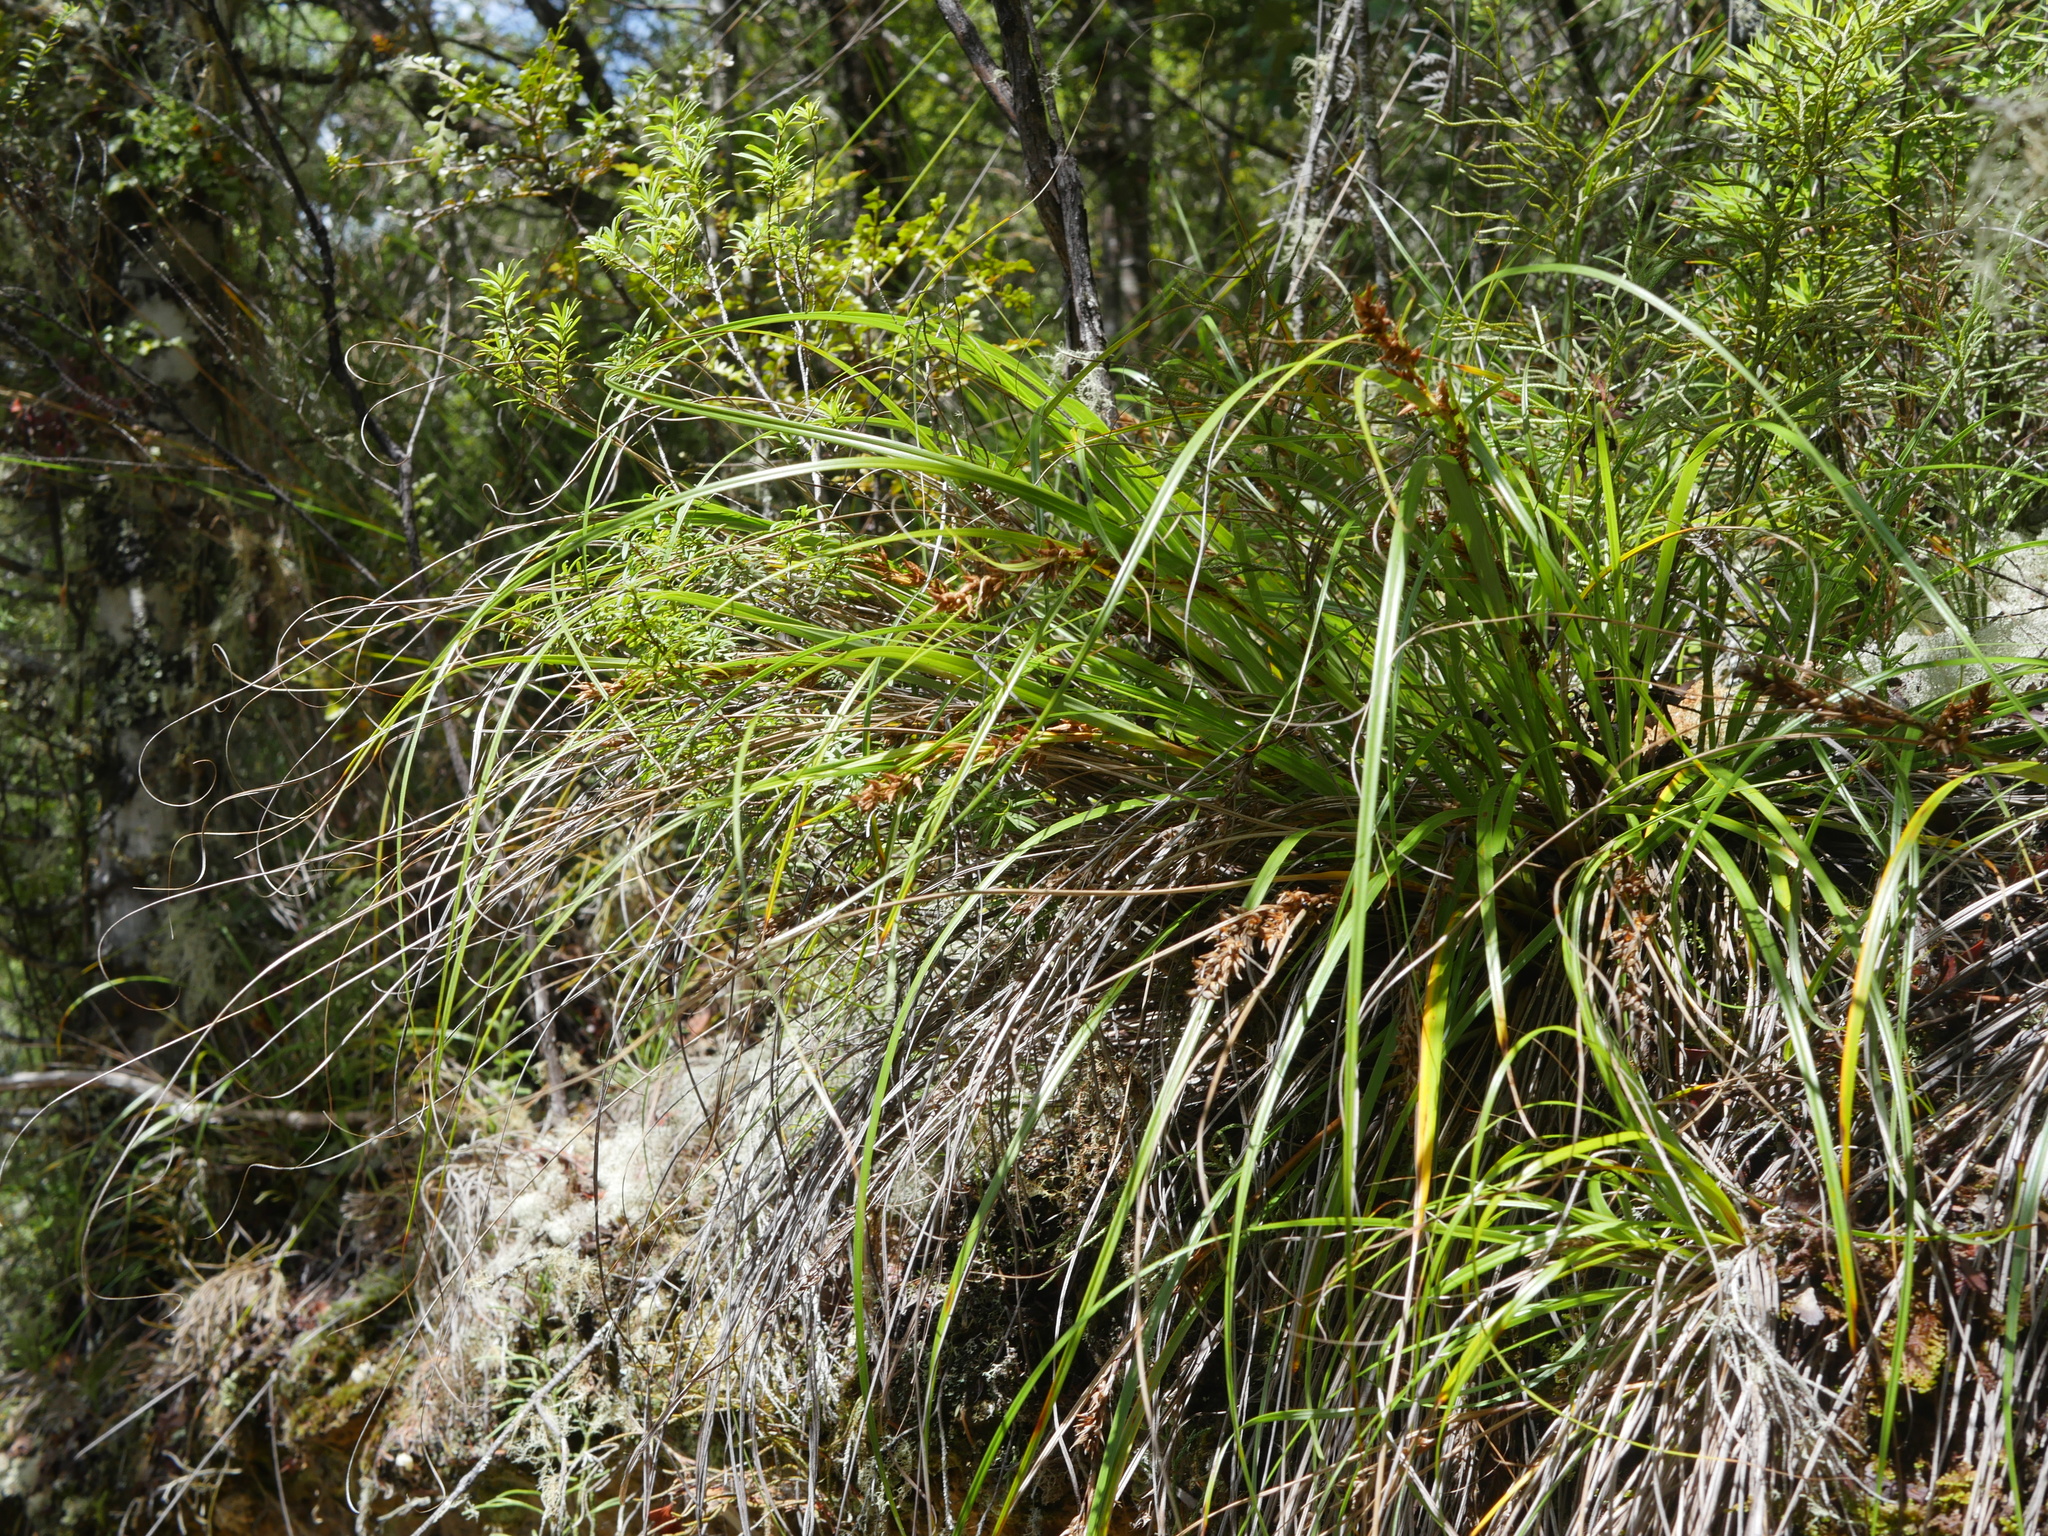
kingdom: Plantae
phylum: Tracheophyta
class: Liliopsida
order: Poales
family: Cyperaceae
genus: Morelotia
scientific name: Morelotia affinis
